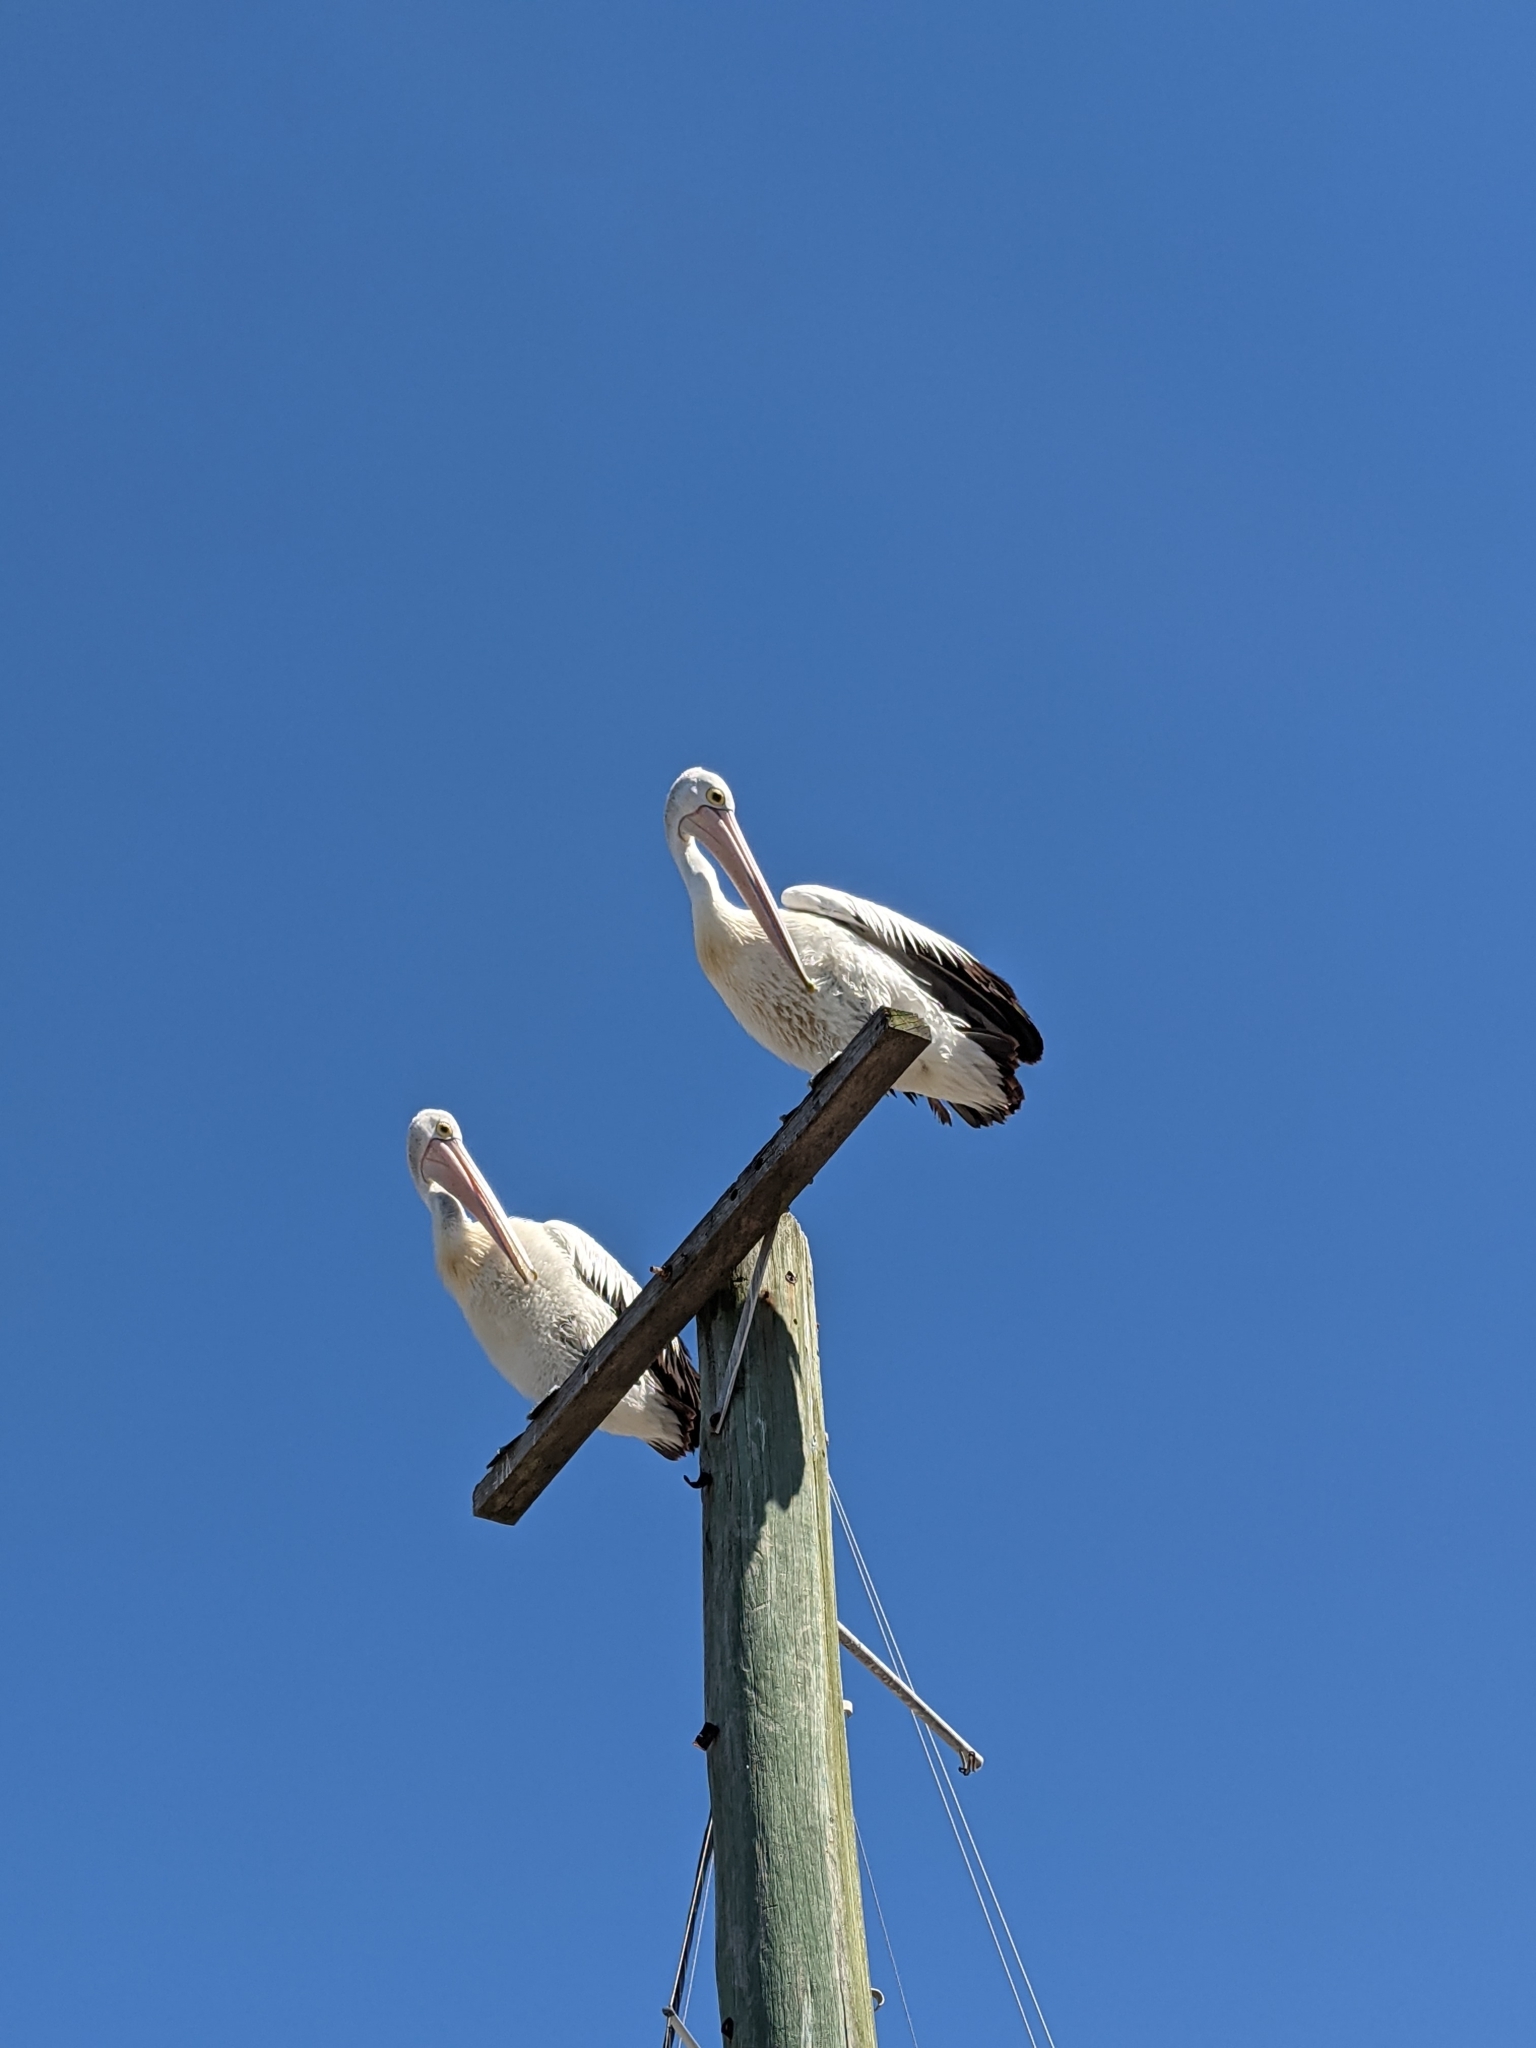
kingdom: Animalia
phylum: Chordata
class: Aves
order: Pelecaniformes
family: Pelecanidae
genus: Pelecanus
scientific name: Pelecanus conspicillatus
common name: Australian pelican
